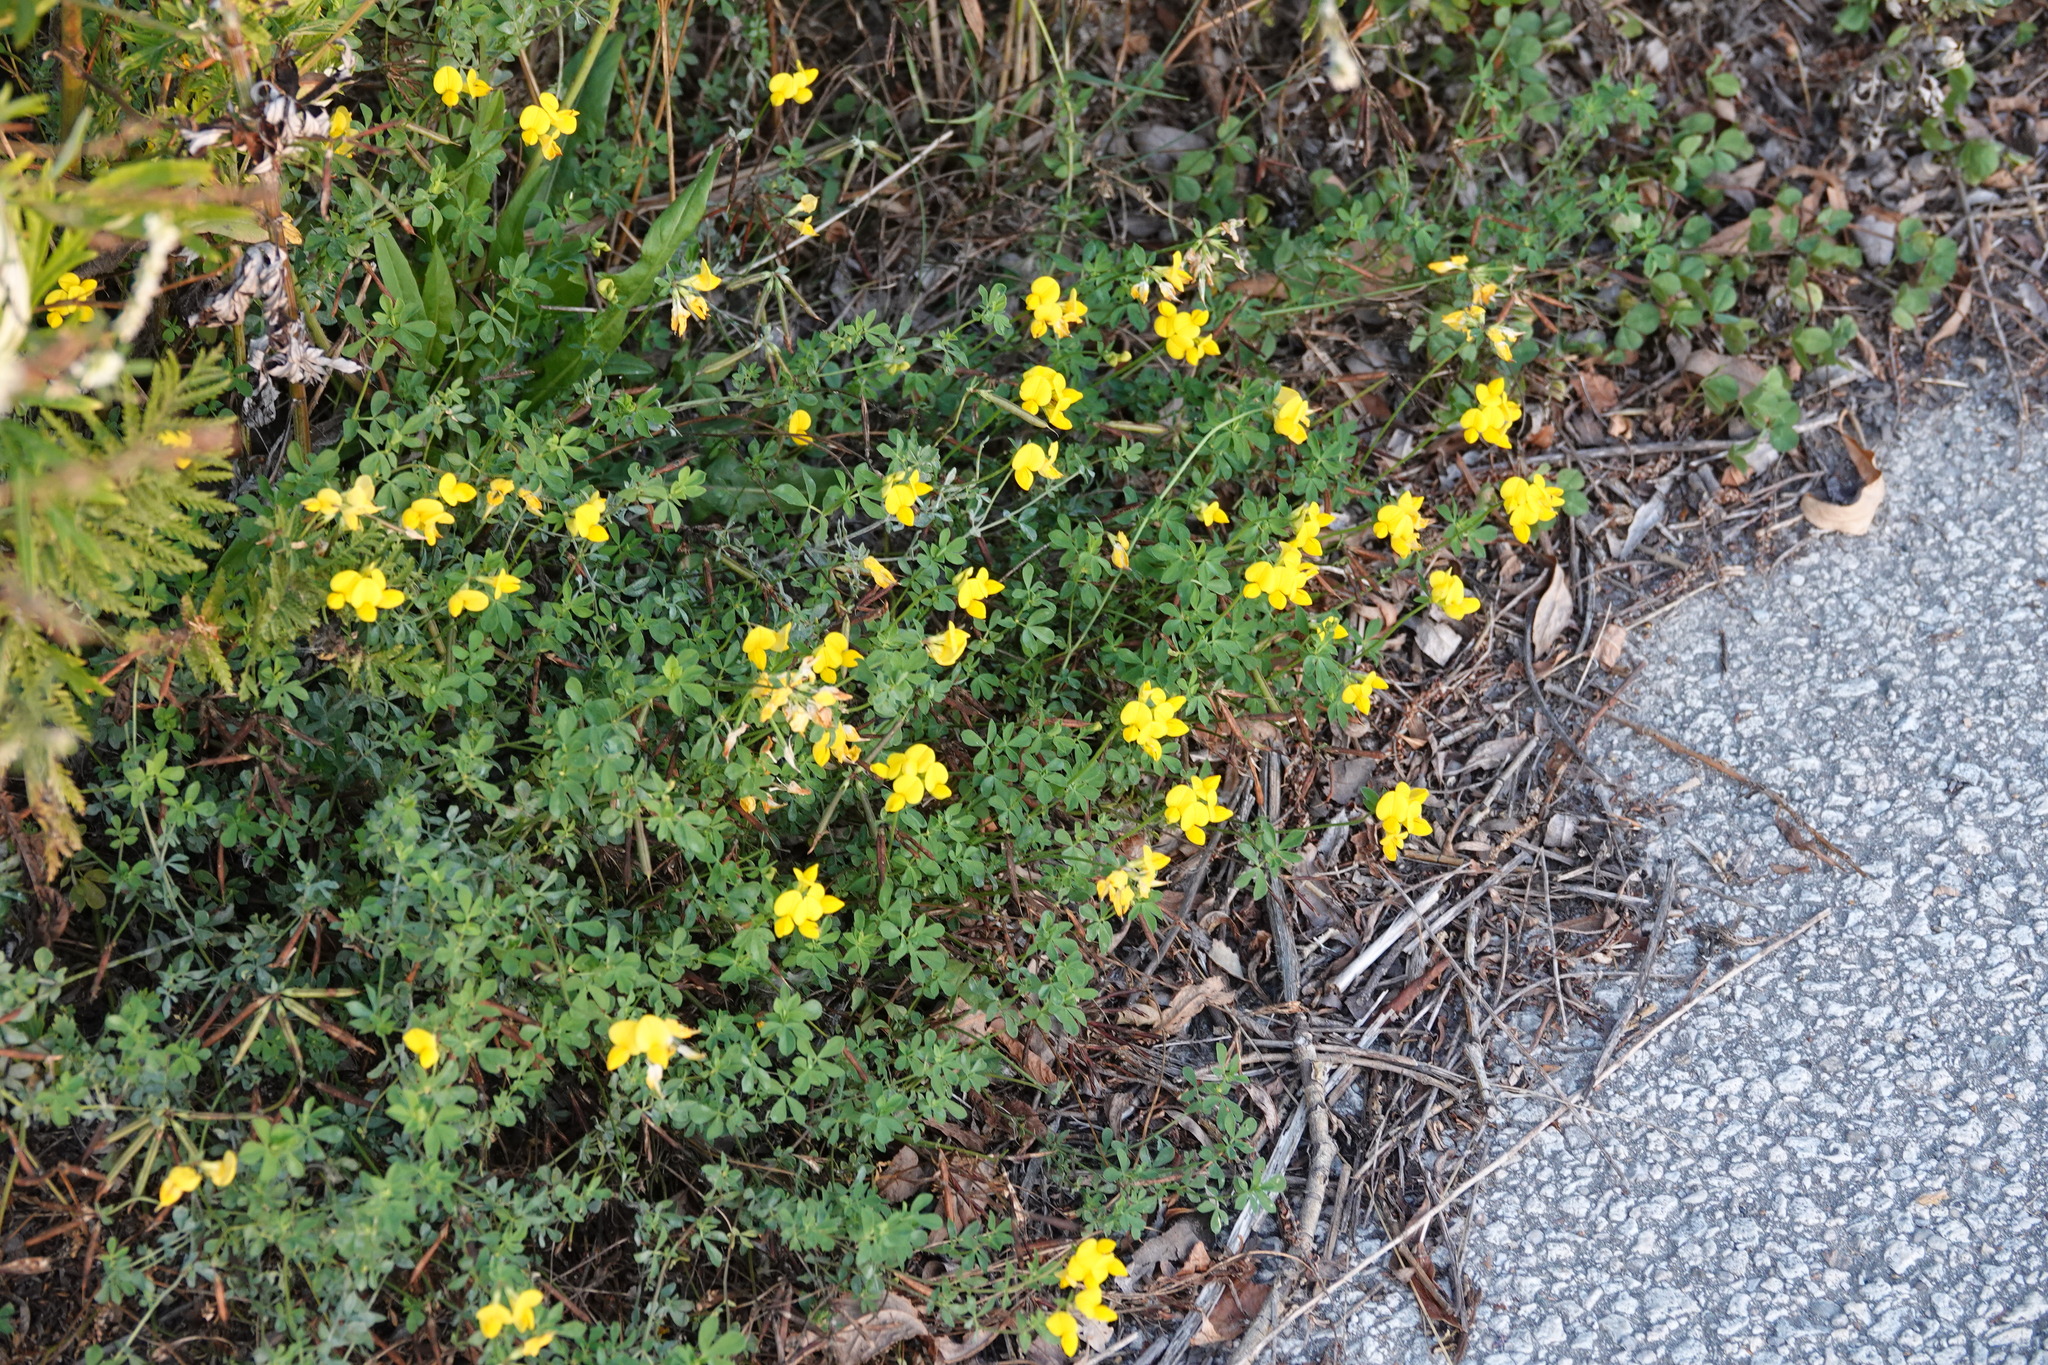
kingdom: Plantae
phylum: Tracheophyta
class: Magnoliopsida
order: Fabales
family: Fabaceae
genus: Lotus
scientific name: Lotus corniculatus
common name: Common bird's-foot-trefoil
